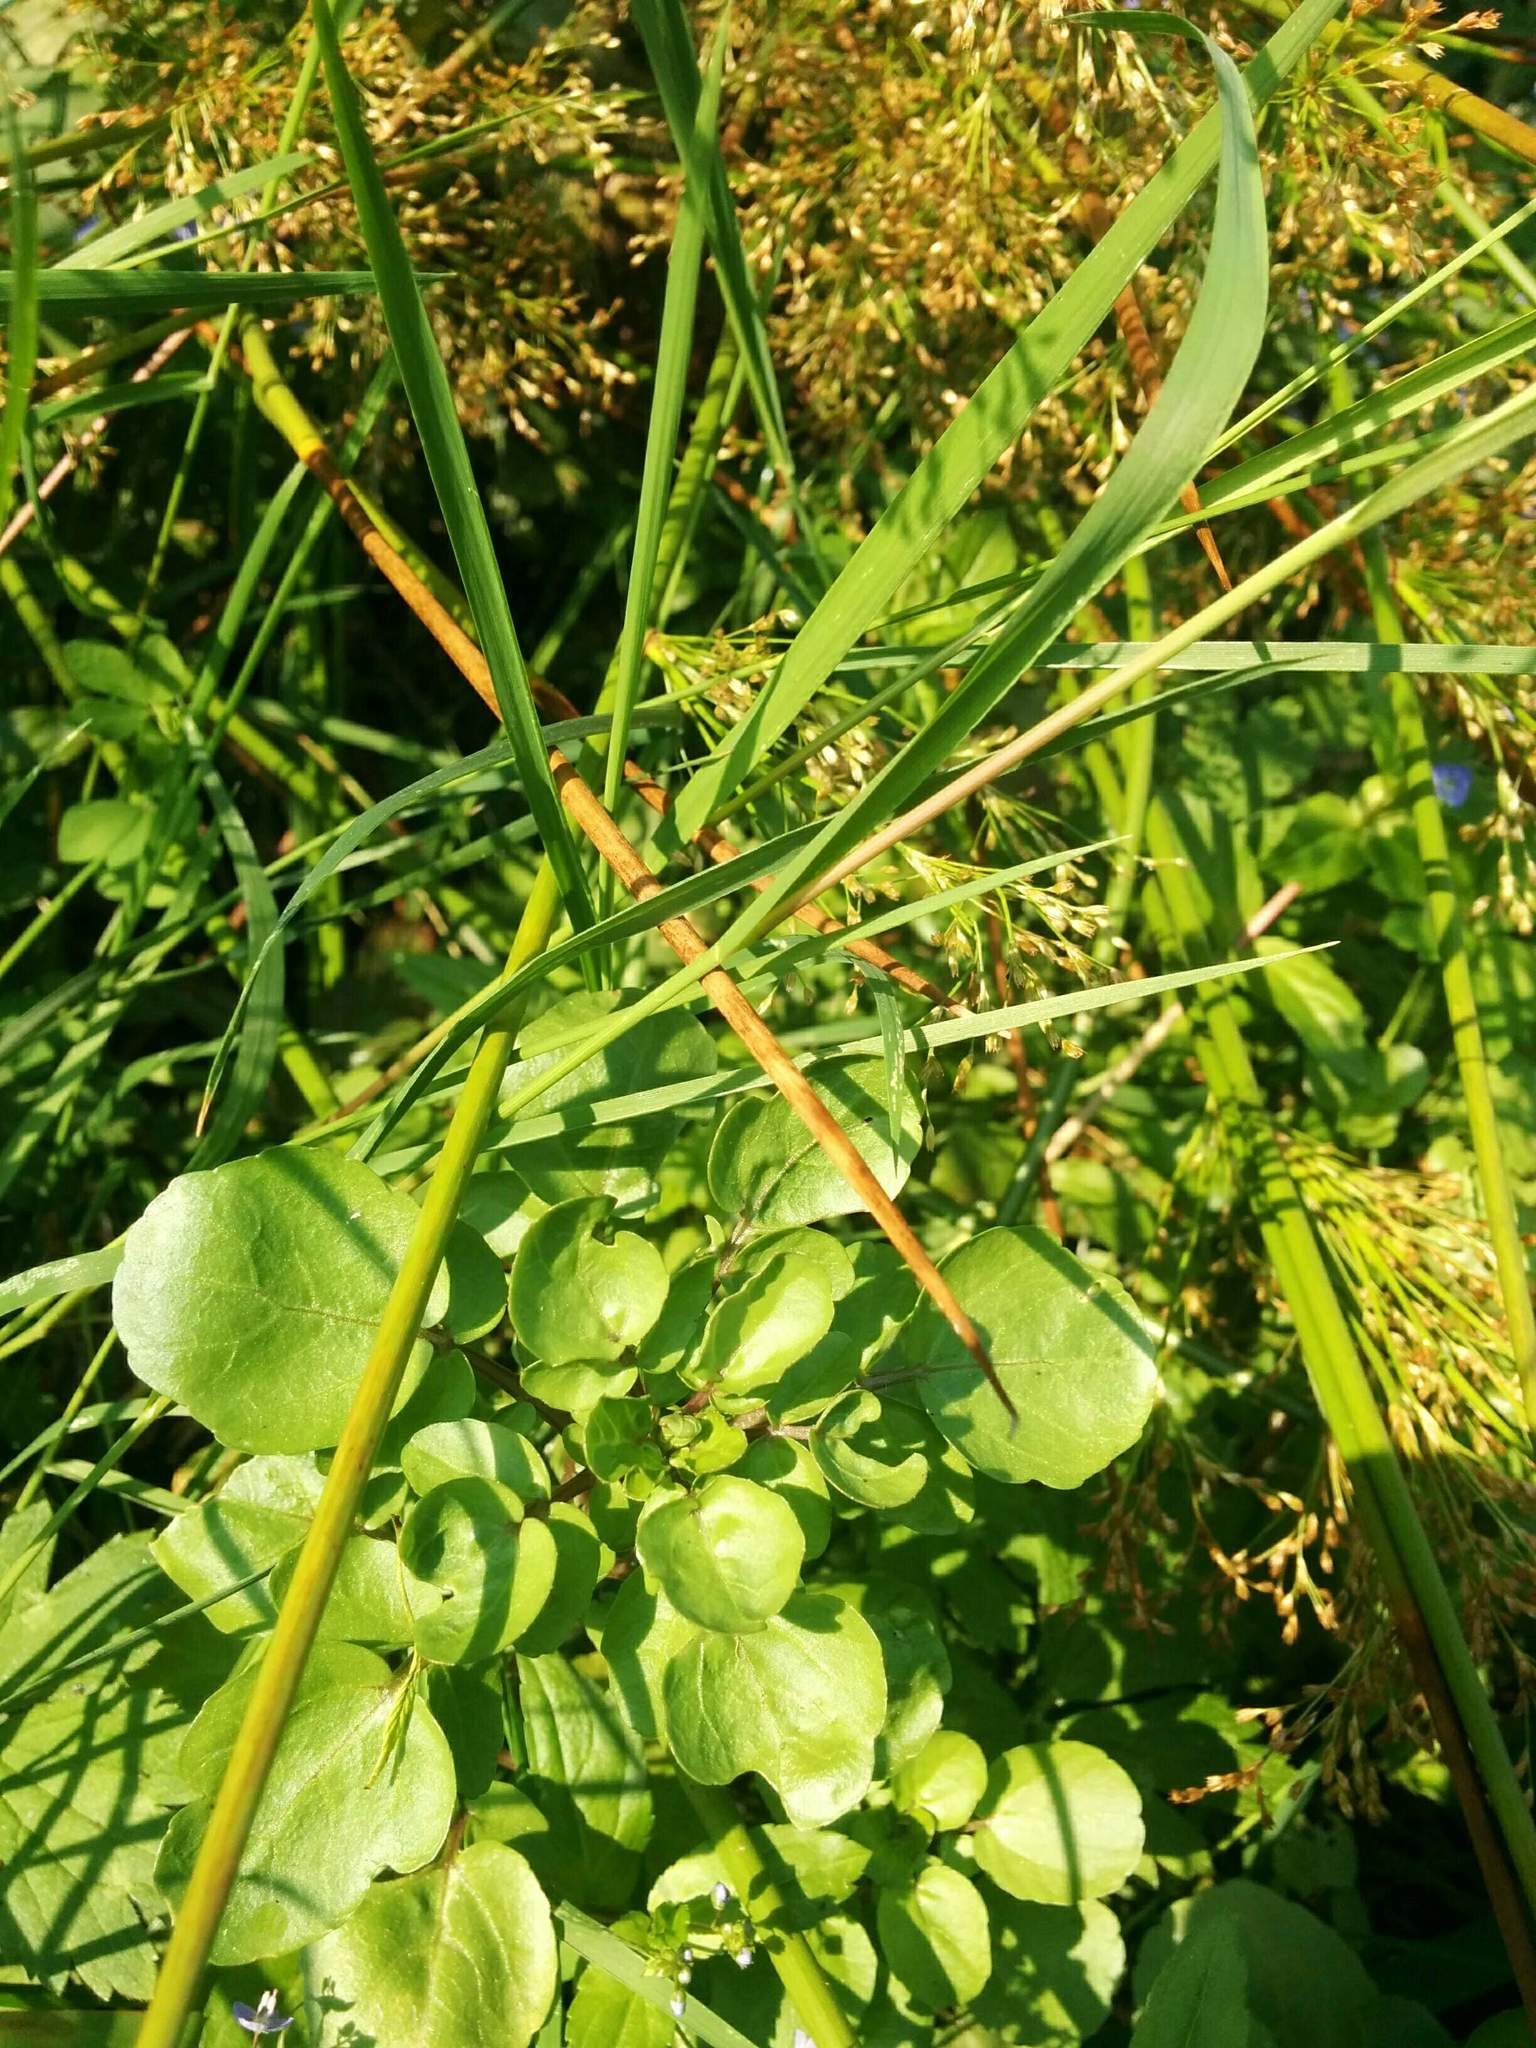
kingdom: Plantae
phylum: Tracheophyta
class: Magnoliopsida
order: Brassicales
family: Brassicaceae
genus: Nasturtium
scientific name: Nasturtium officinale
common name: Watercress
